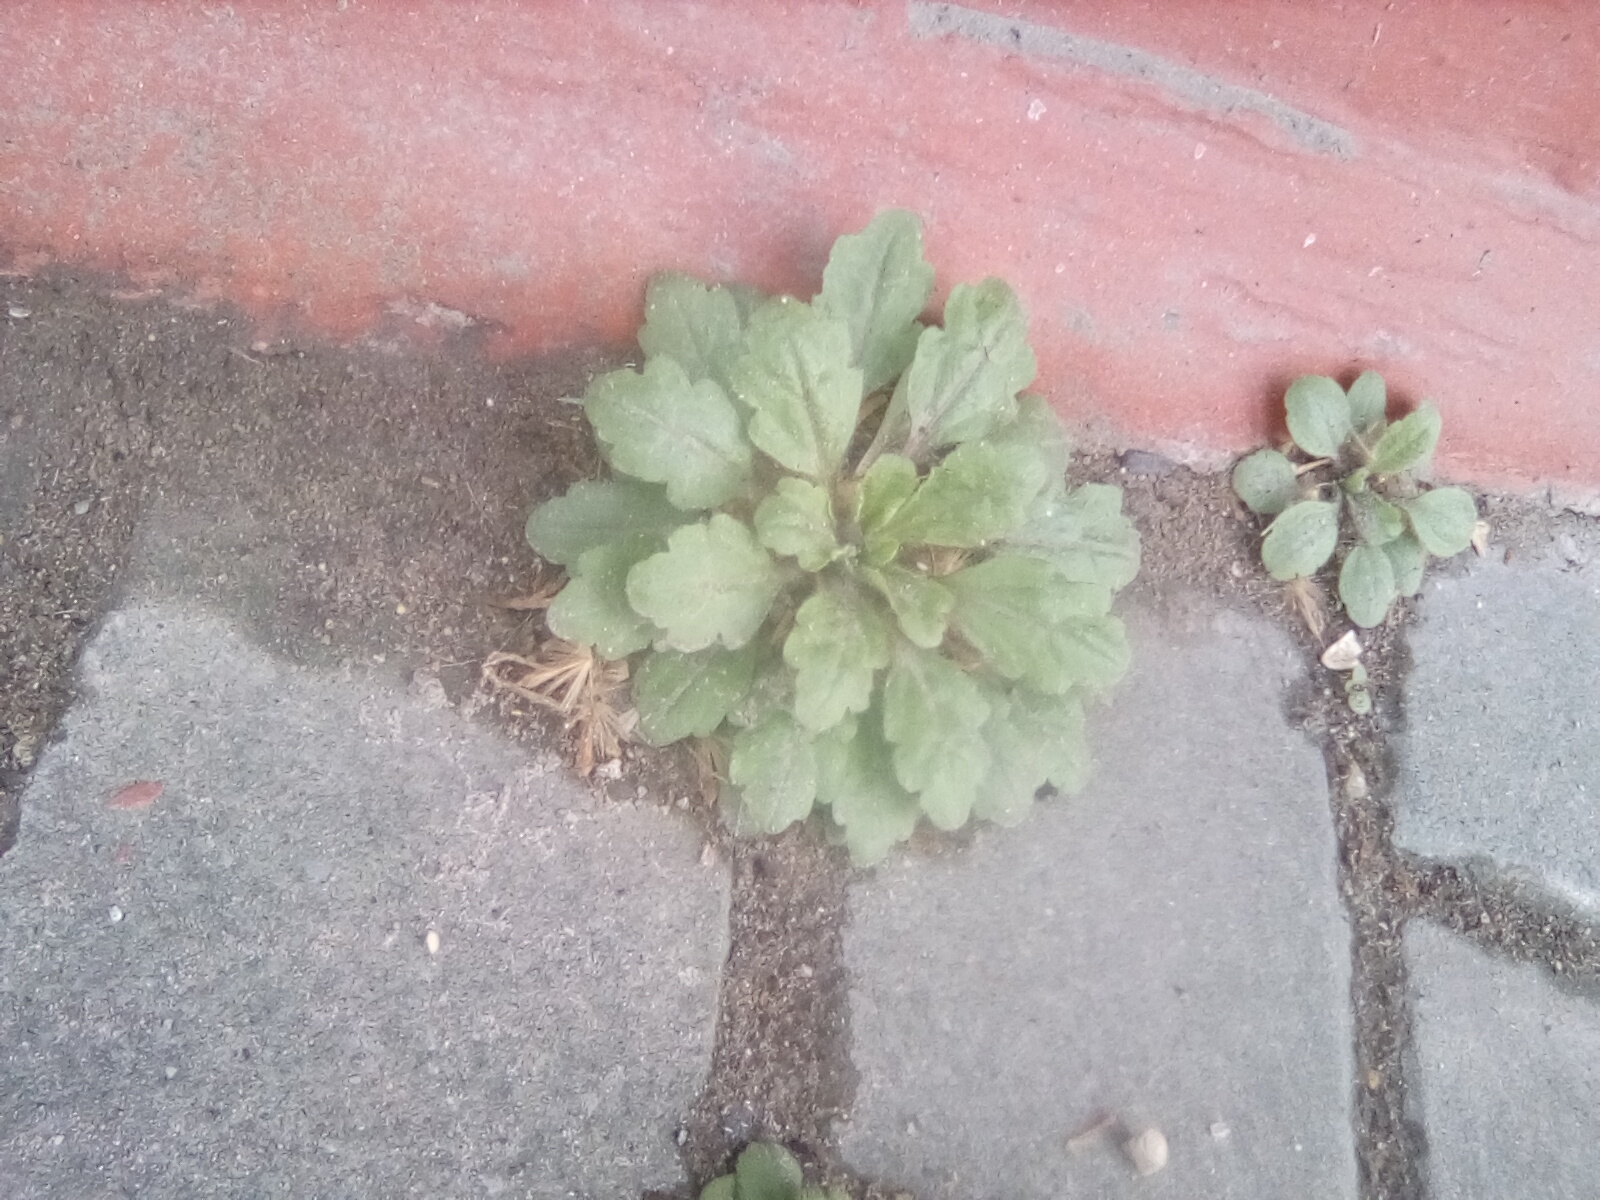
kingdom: Plantae
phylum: Tracheophyta
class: Magnoliopsida
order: Asterales
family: Asteraceae
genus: Erigeron
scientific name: Erigeron canadensis
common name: Canadian fleabane
